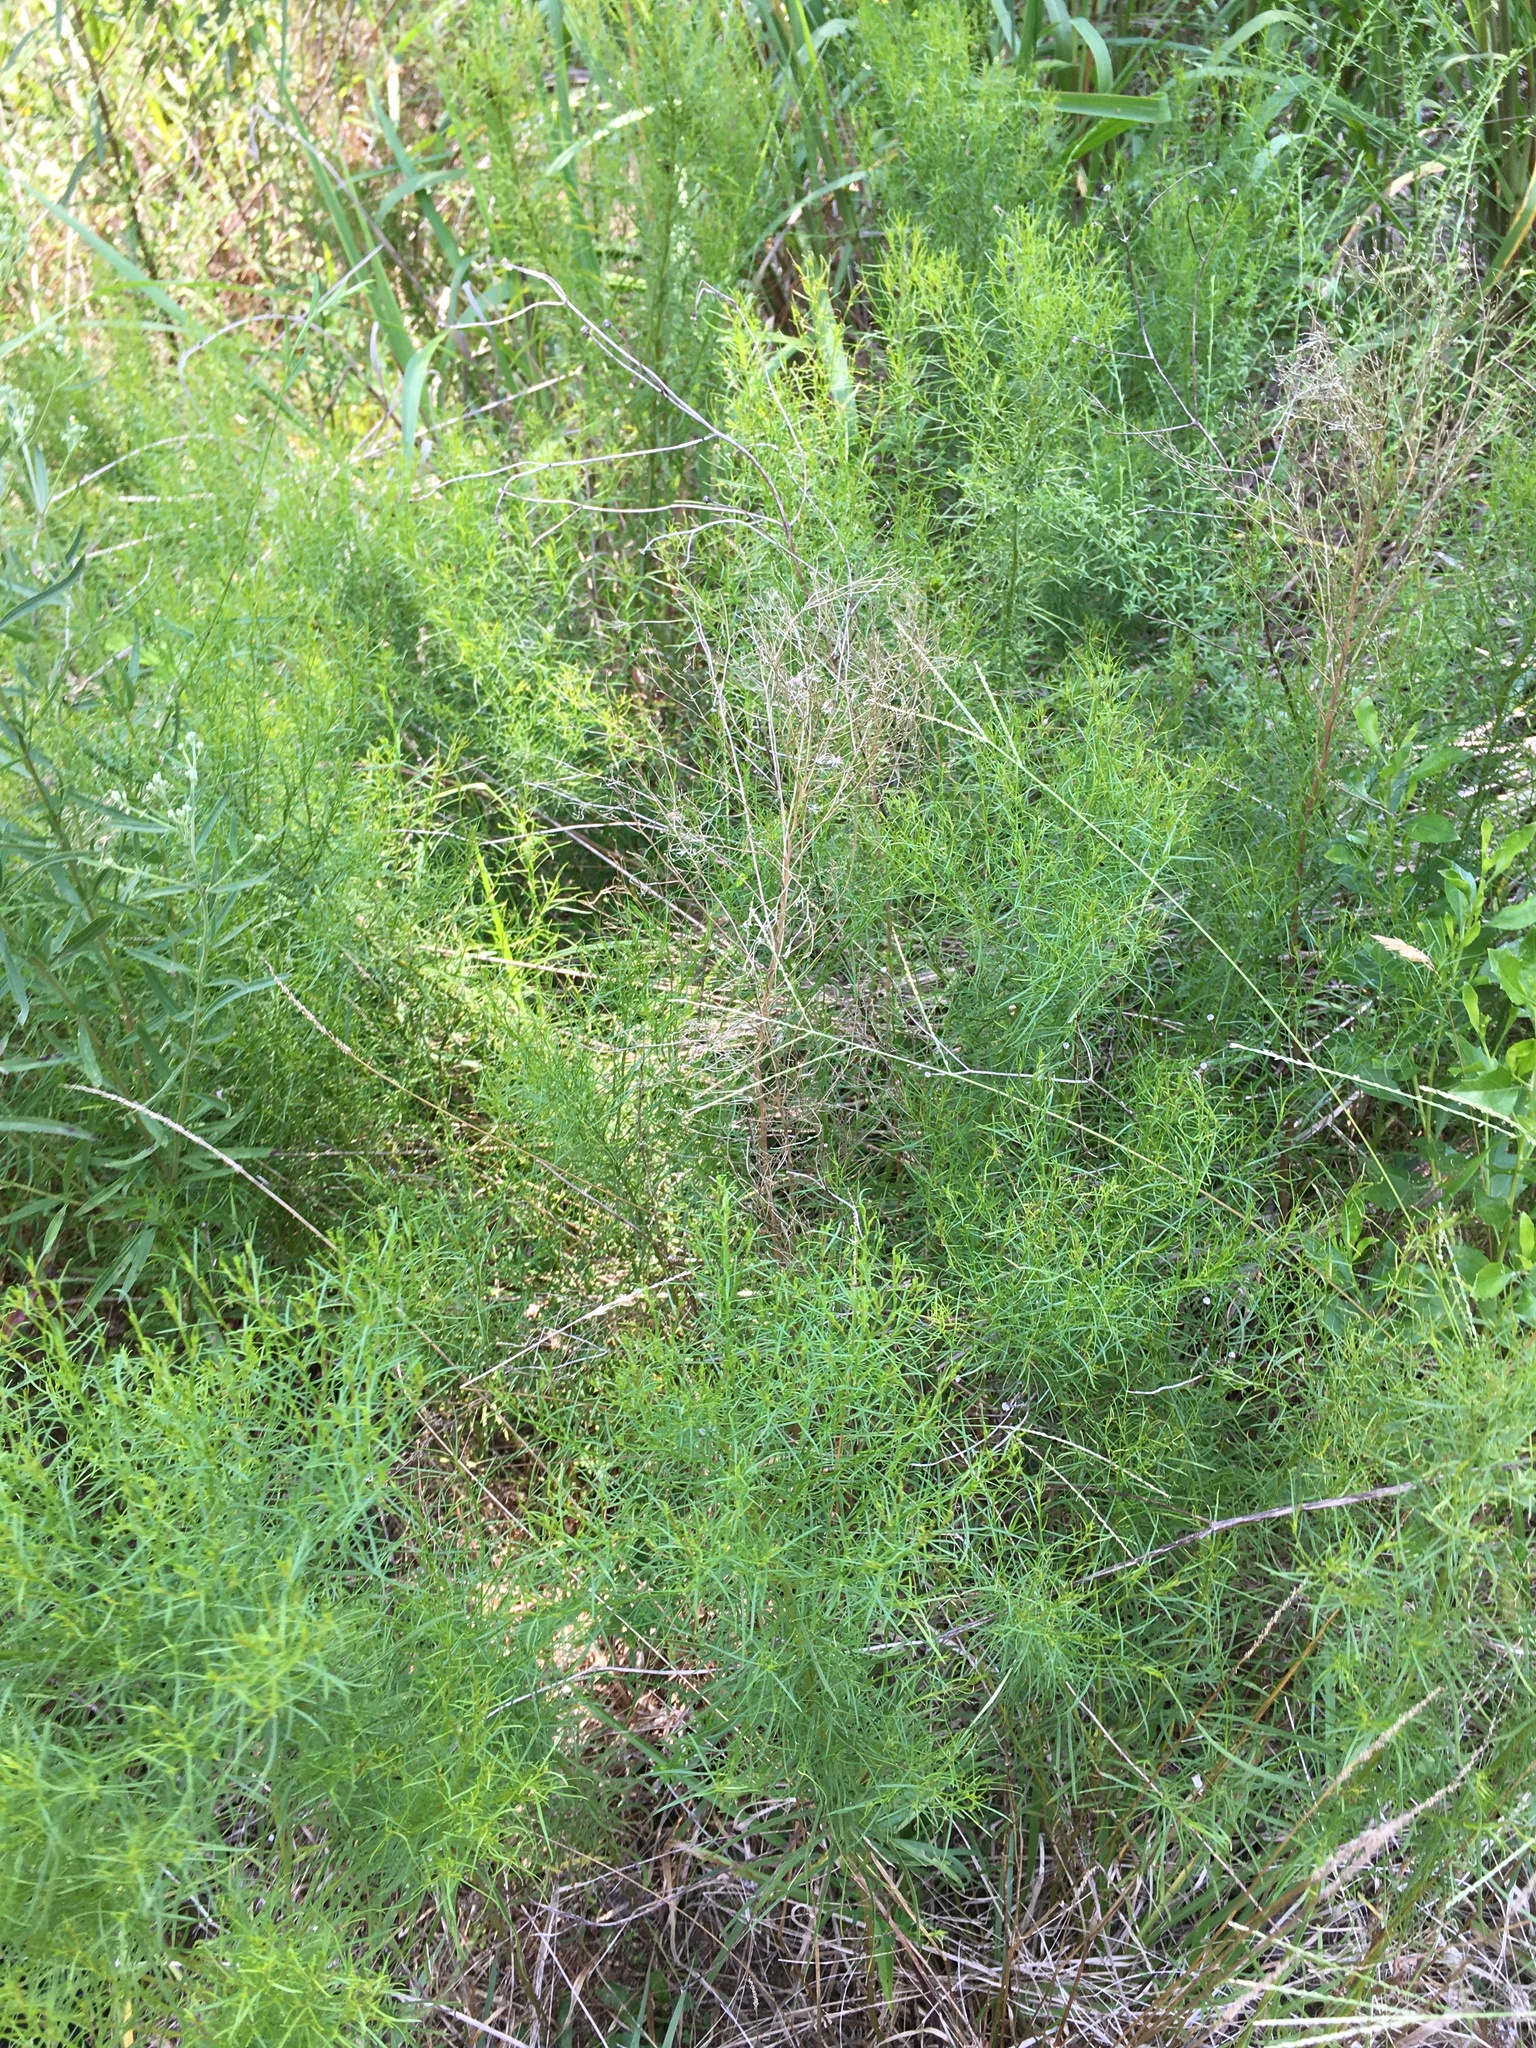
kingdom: Plantae
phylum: Tracheophyta
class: Magnoliopsida
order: Asterales
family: Asteraceae
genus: Euthamia
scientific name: Euthamia caroliniana
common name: Coastal plain goldentop
